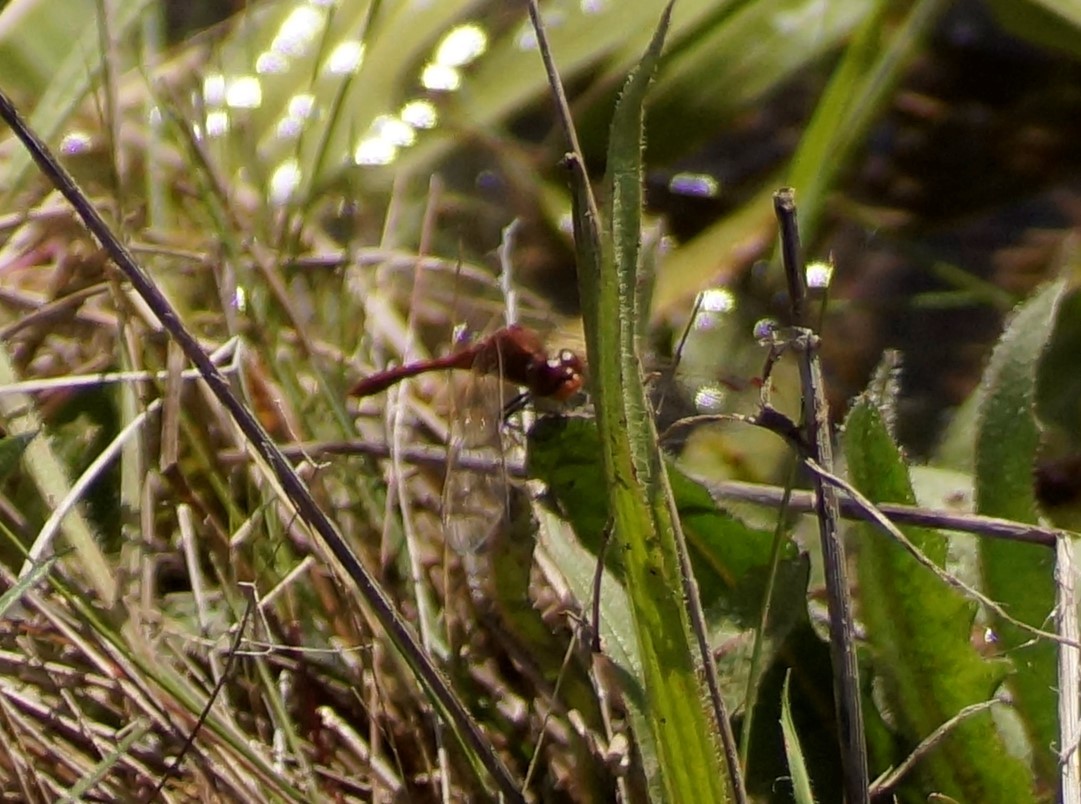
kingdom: Animalia
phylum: Arthropoda
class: Insecta
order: Odonata
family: Libellulidae
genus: Diplacodes
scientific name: Diplacodes bipunctata
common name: Red percher dragonfly
